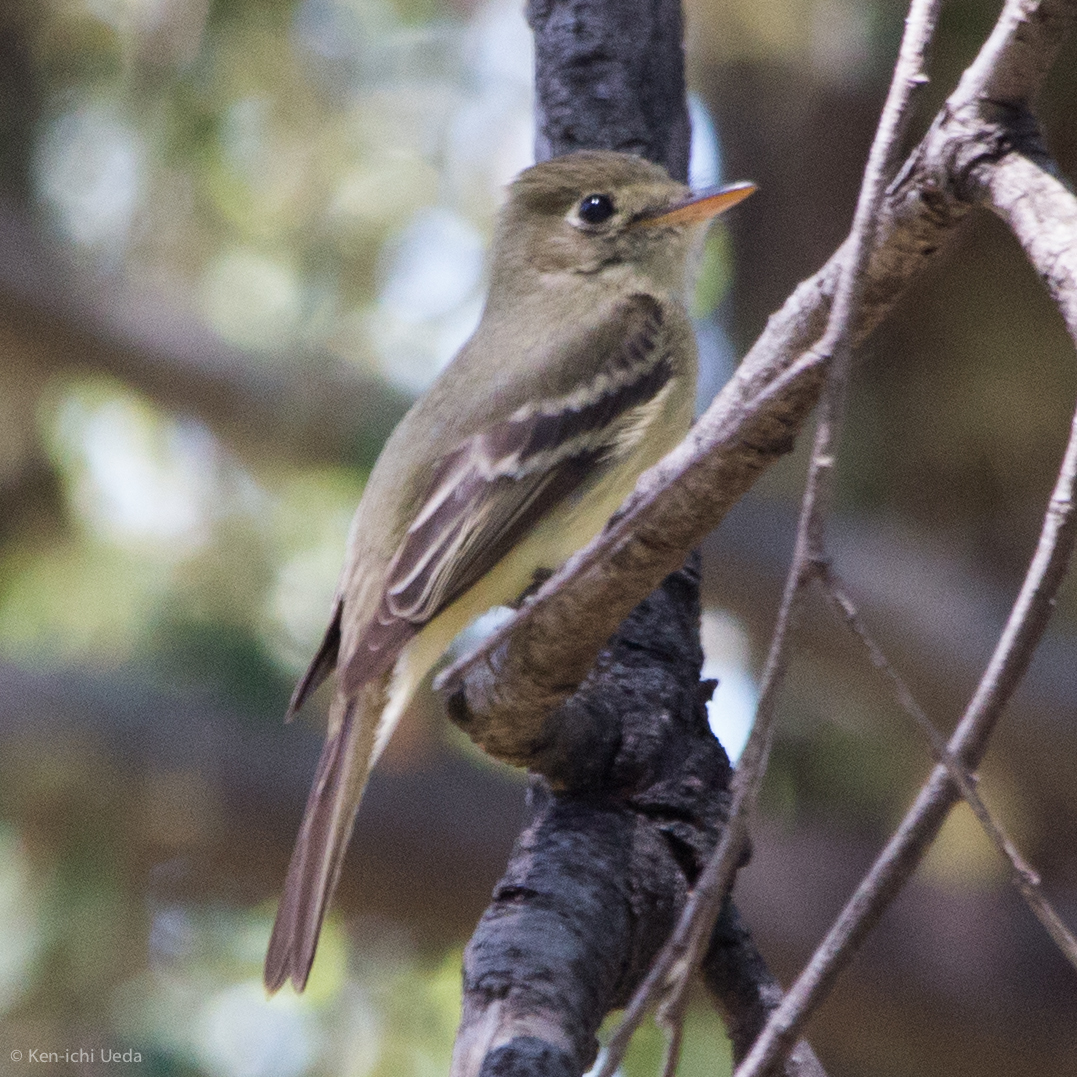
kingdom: Animalia
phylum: Chordata
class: Aves
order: Passeriformes
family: Tyrannidae
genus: Empidonax
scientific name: Empidonax difficilis
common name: Pacific-slope flycatcher
